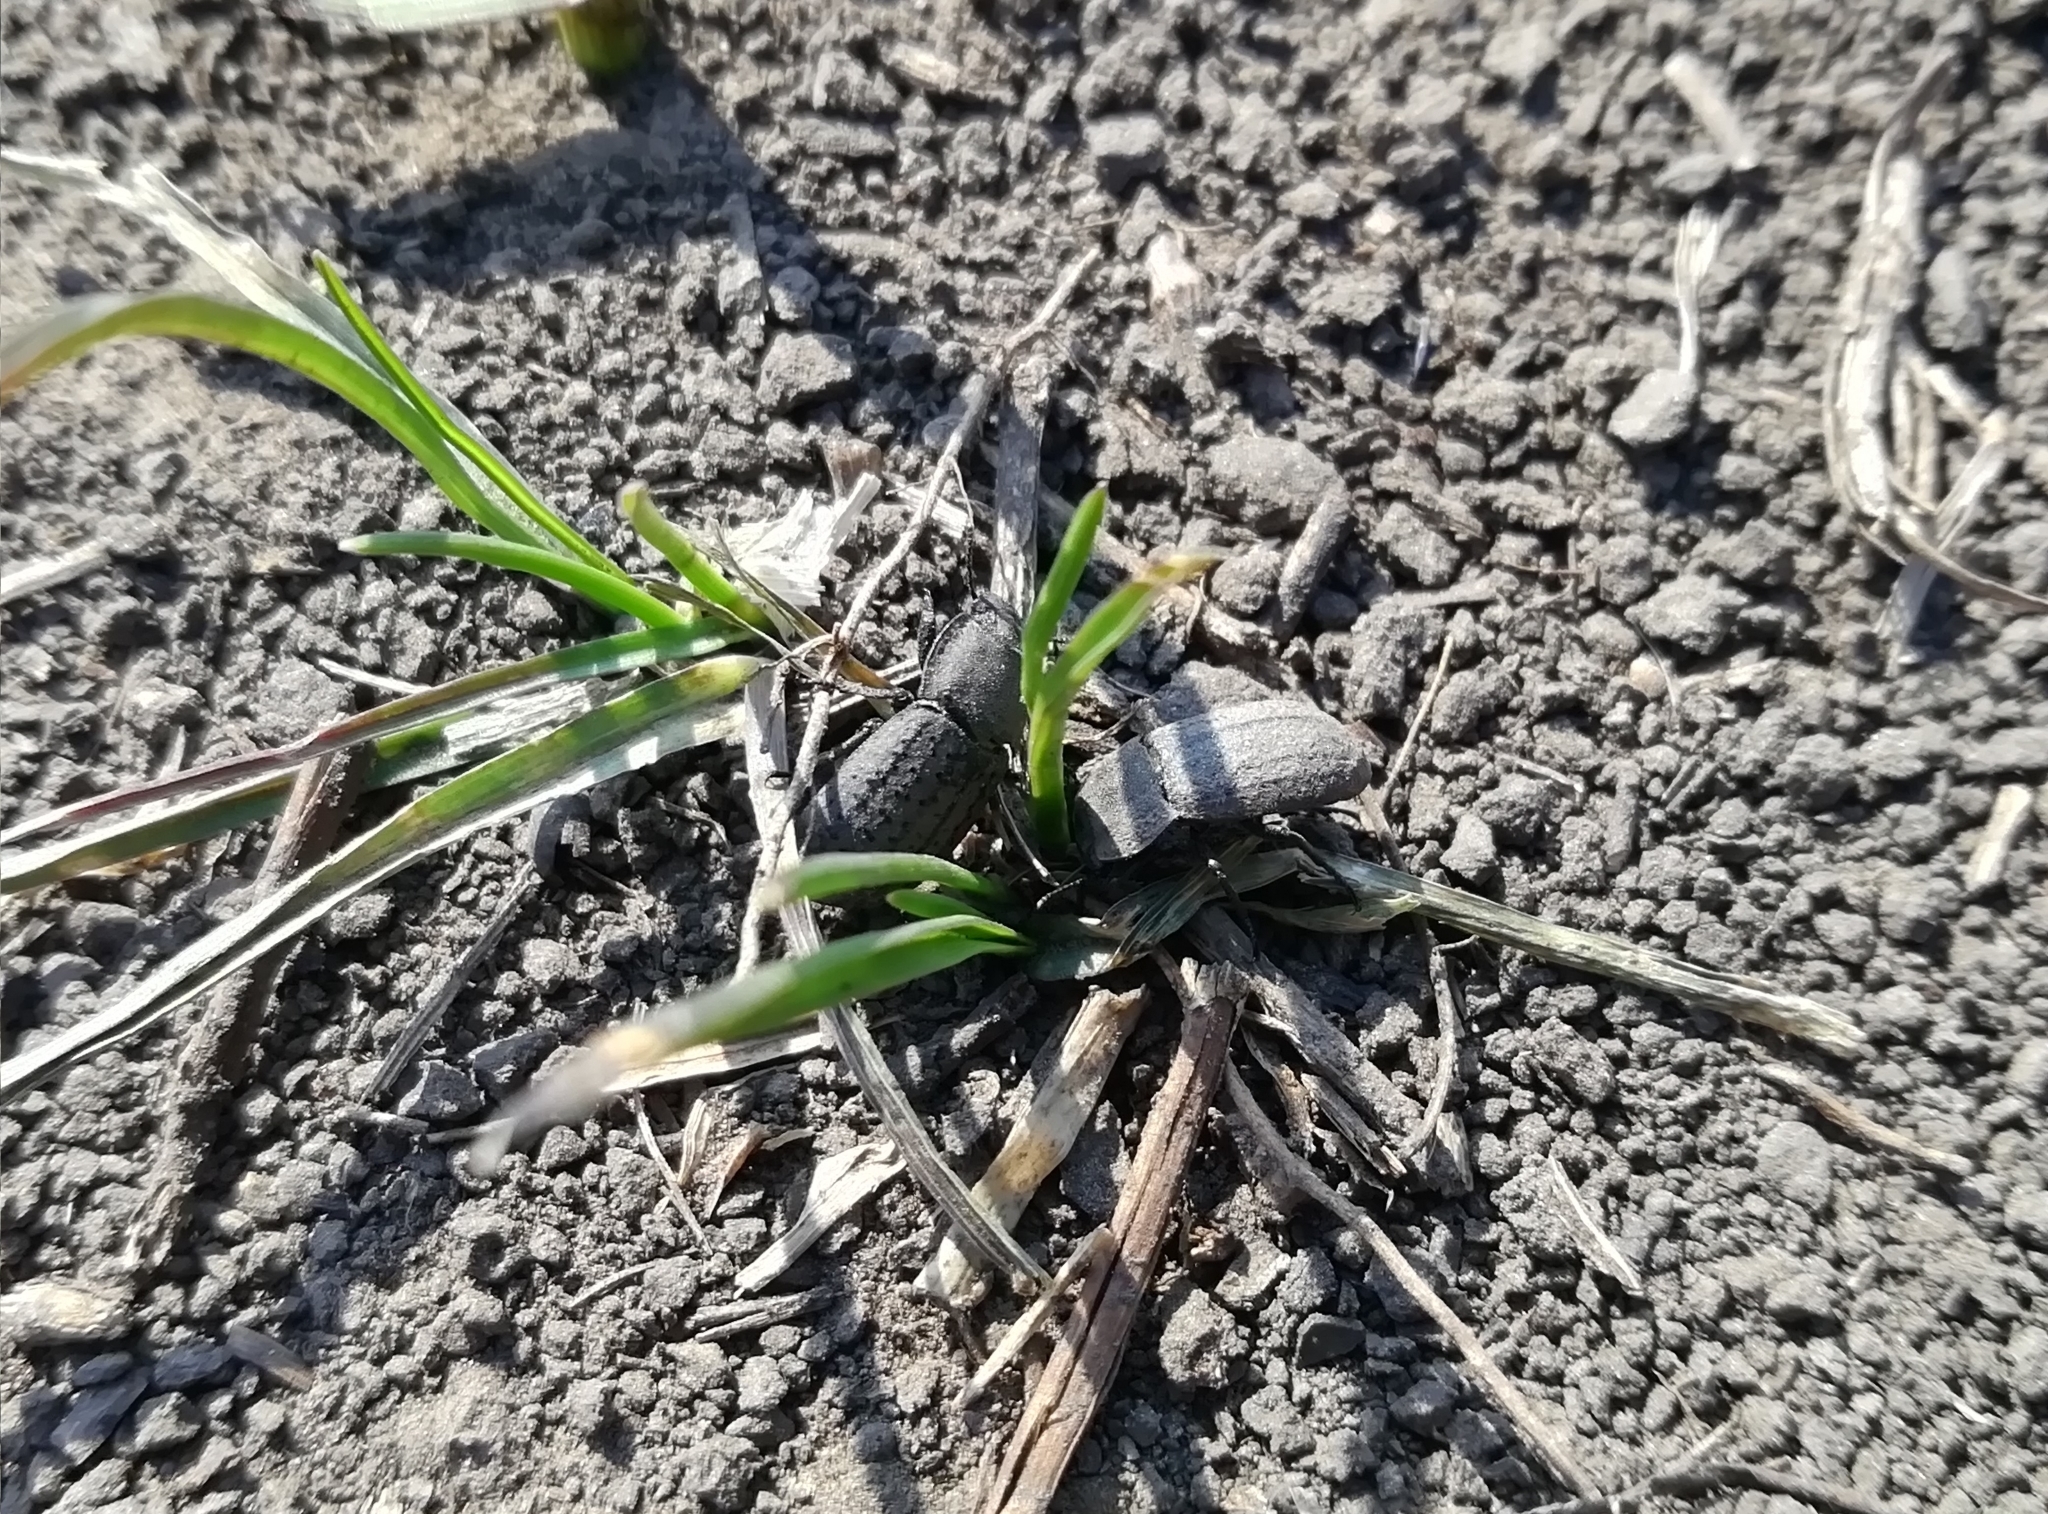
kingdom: Animalia
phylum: Arthropoda
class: Insecta
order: Coleoptera
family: Tenebrionidae
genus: Opatrum
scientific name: Opatrum sabulosum
